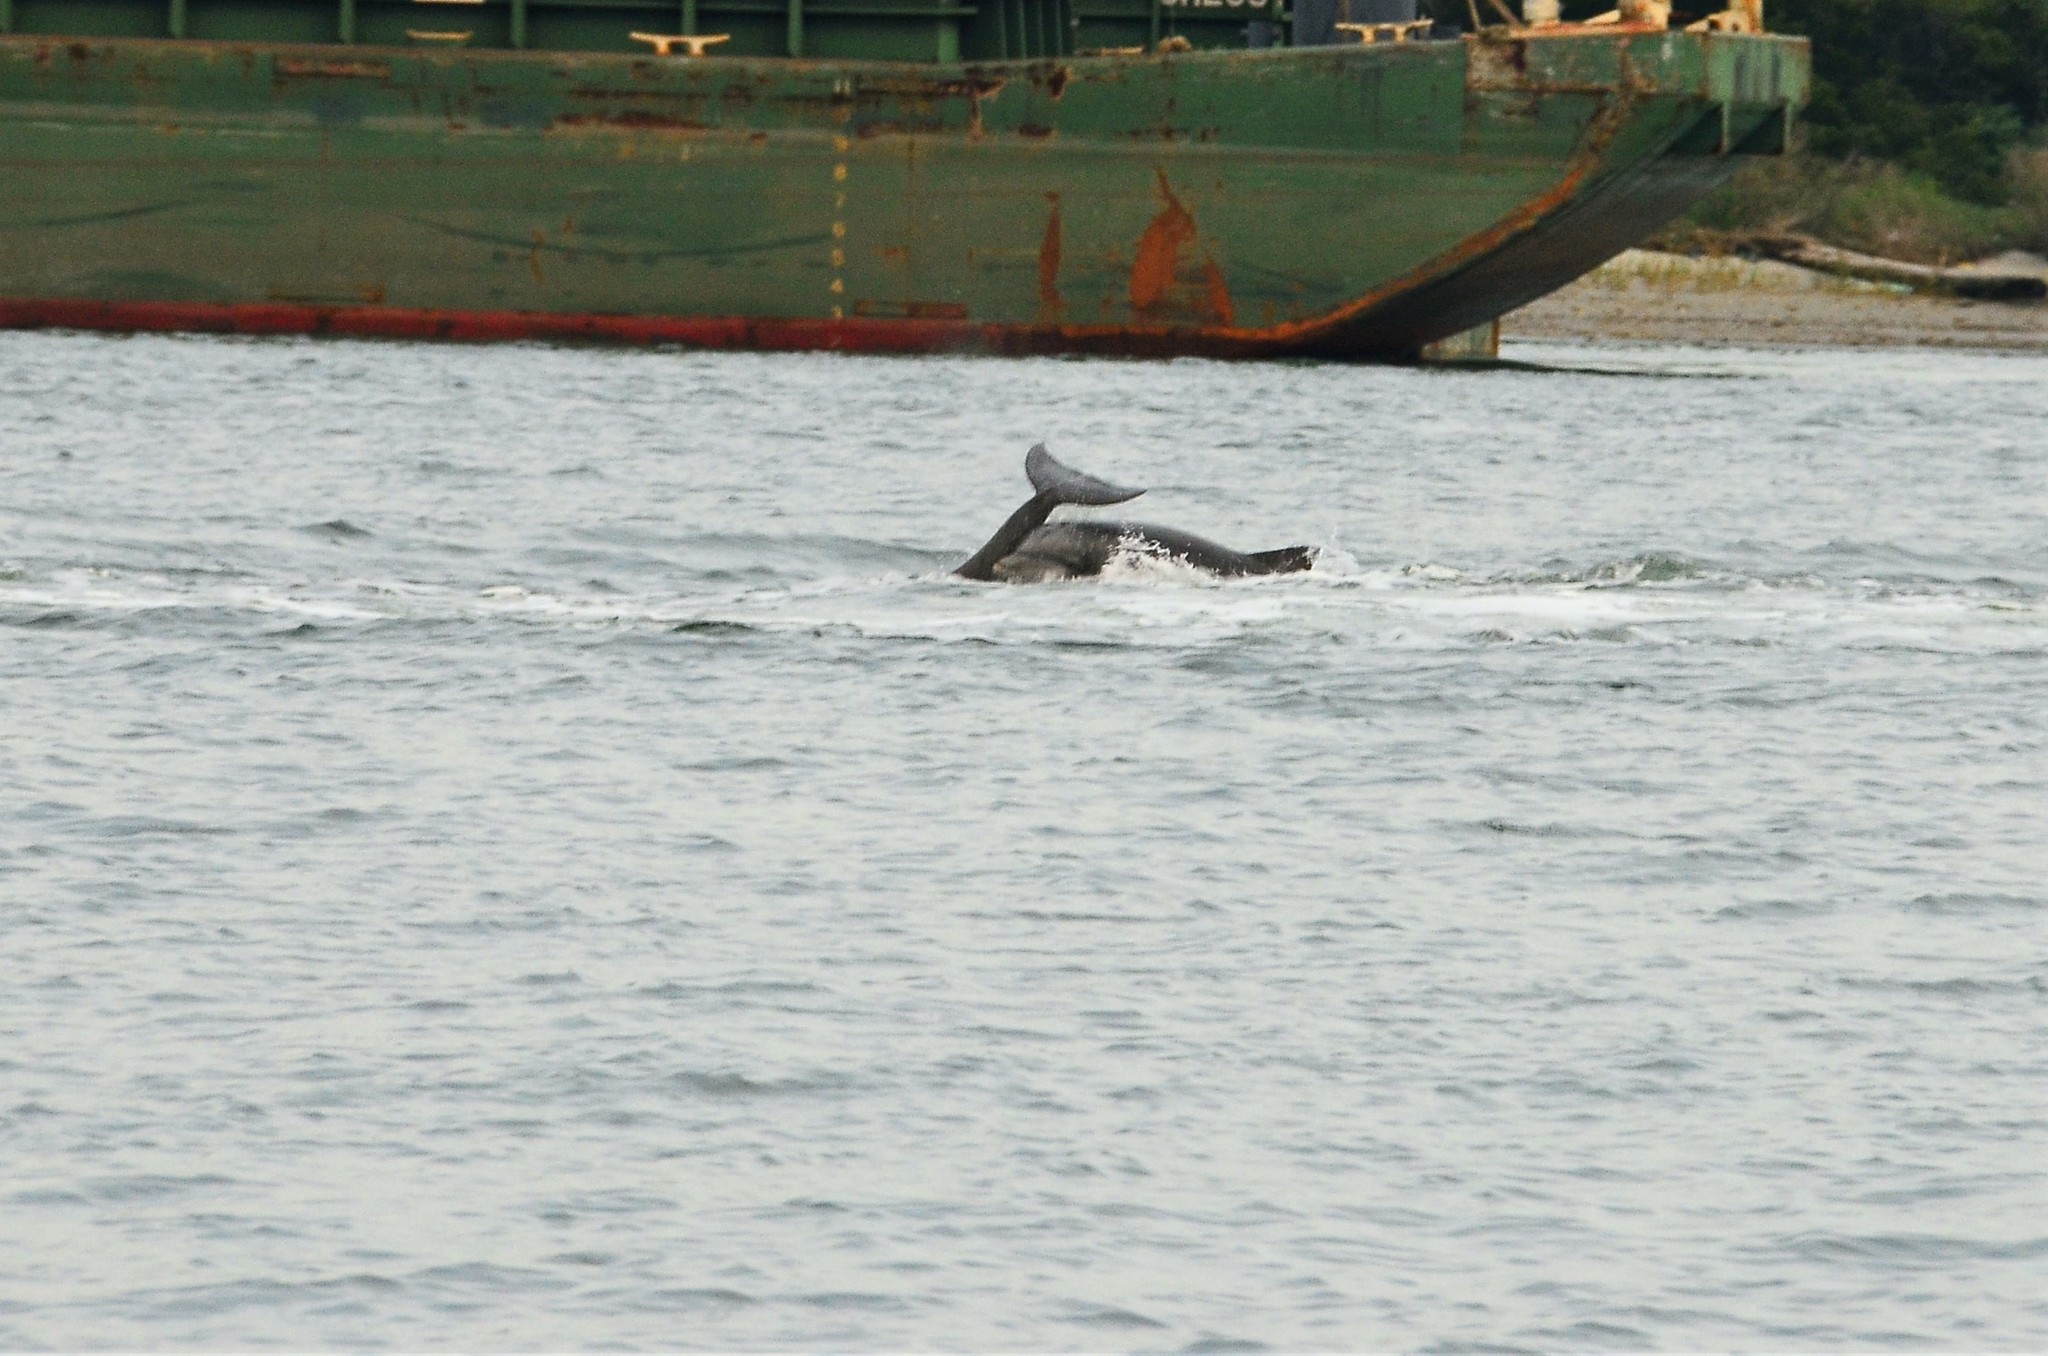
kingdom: Animalia
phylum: Chordata
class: Mammalia
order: Cetacea
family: Delphinidae
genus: Tursiops
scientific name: Tursiops truncatus
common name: Bottlenose dolphin
